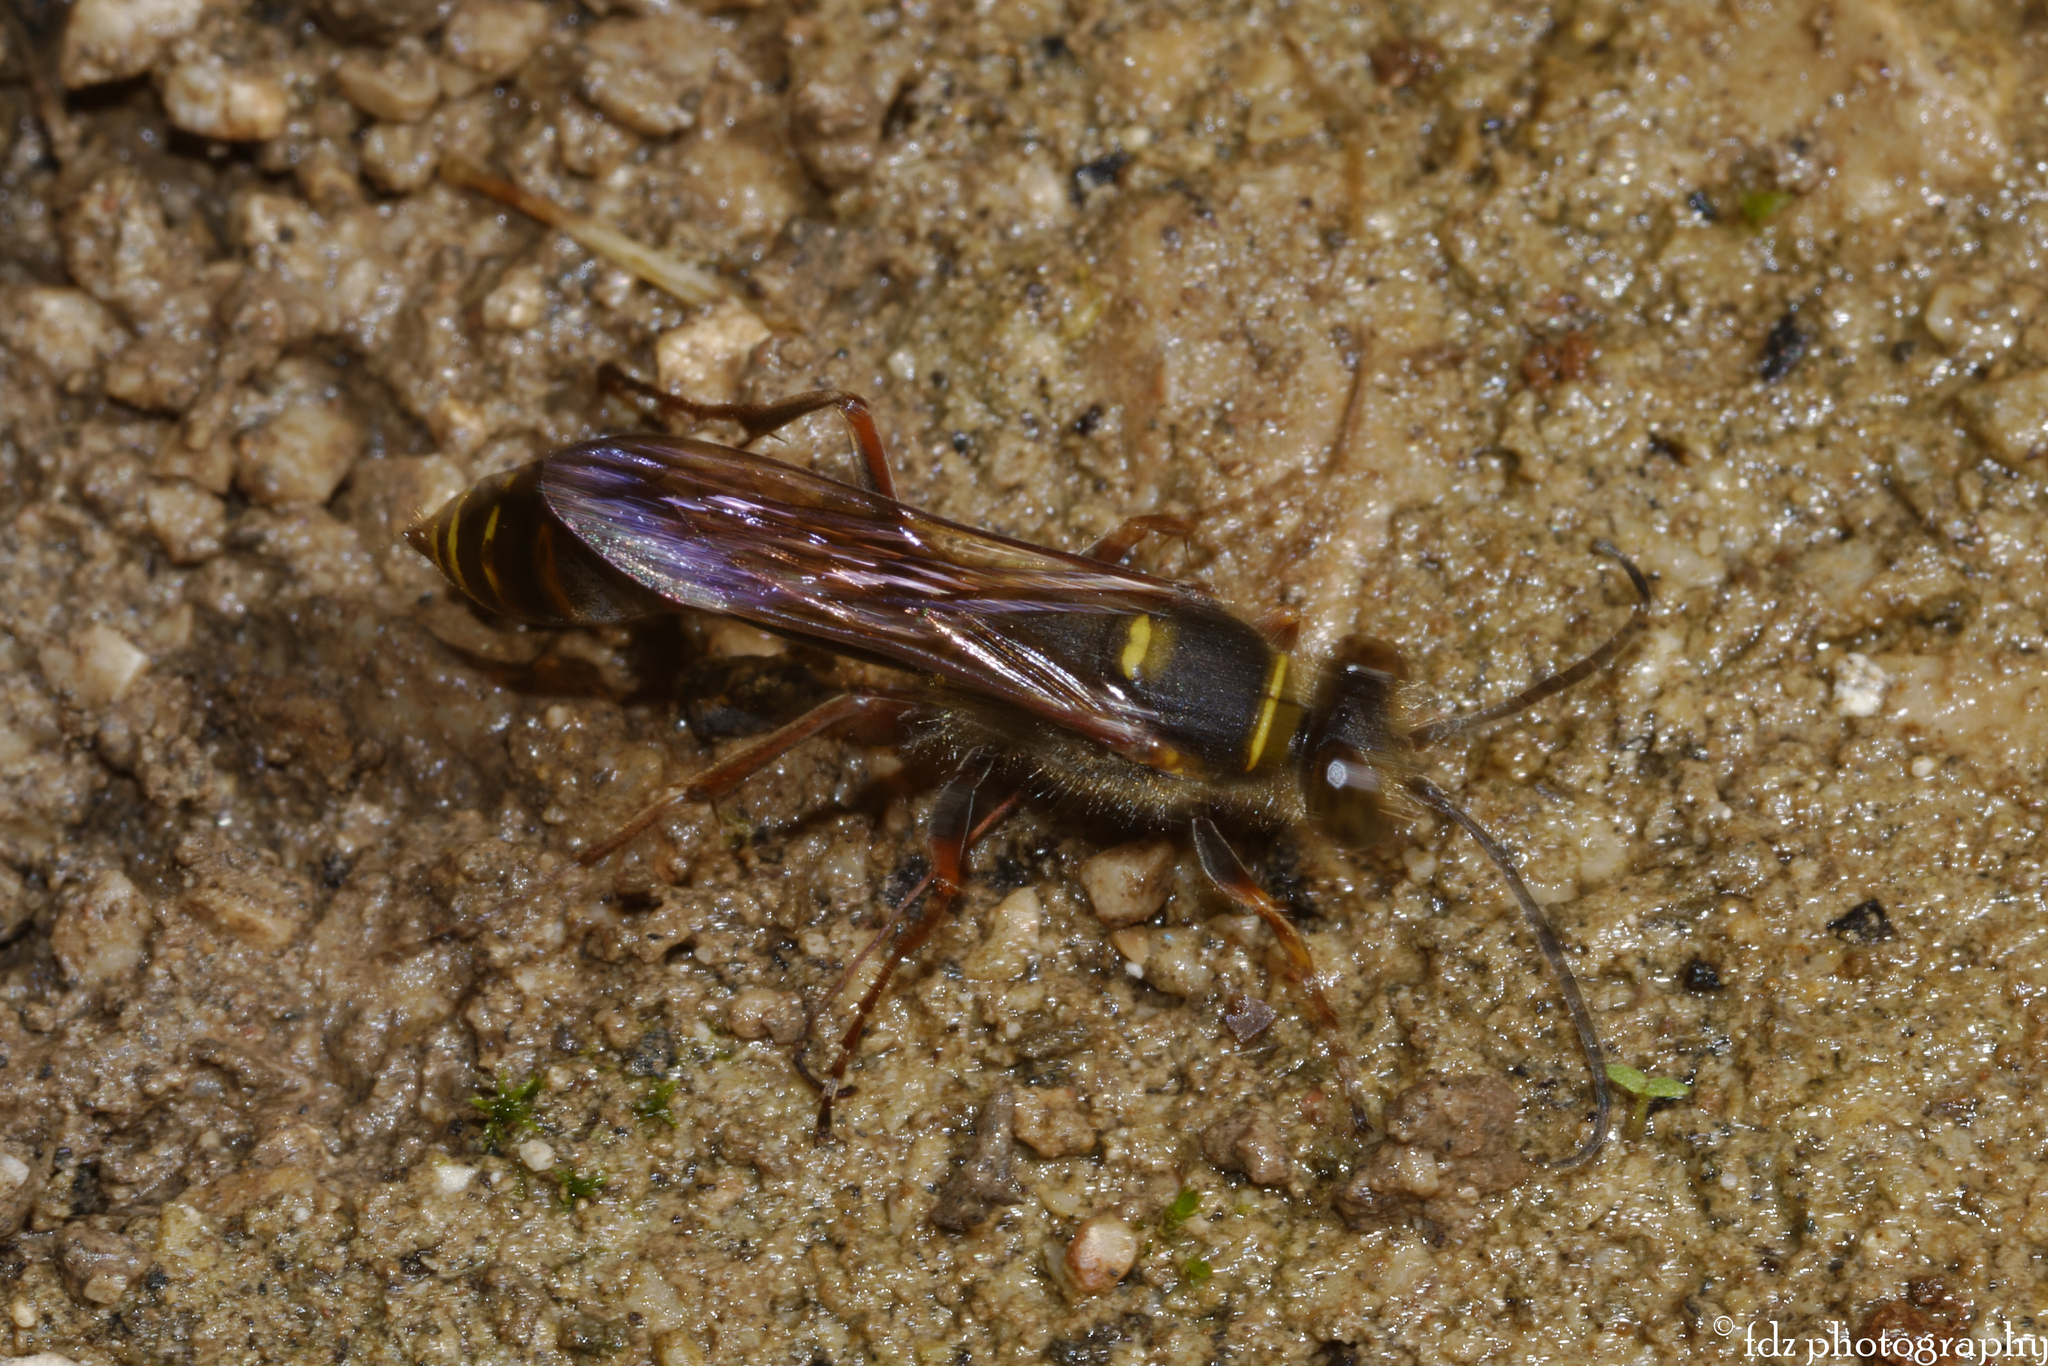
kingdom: Animalia
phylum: Arthropoda
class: Insecta
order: Hymenoptera
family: Sphecidae
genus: Sceliphron
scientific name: Sceliphron curvatum
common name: Pèlopèe
